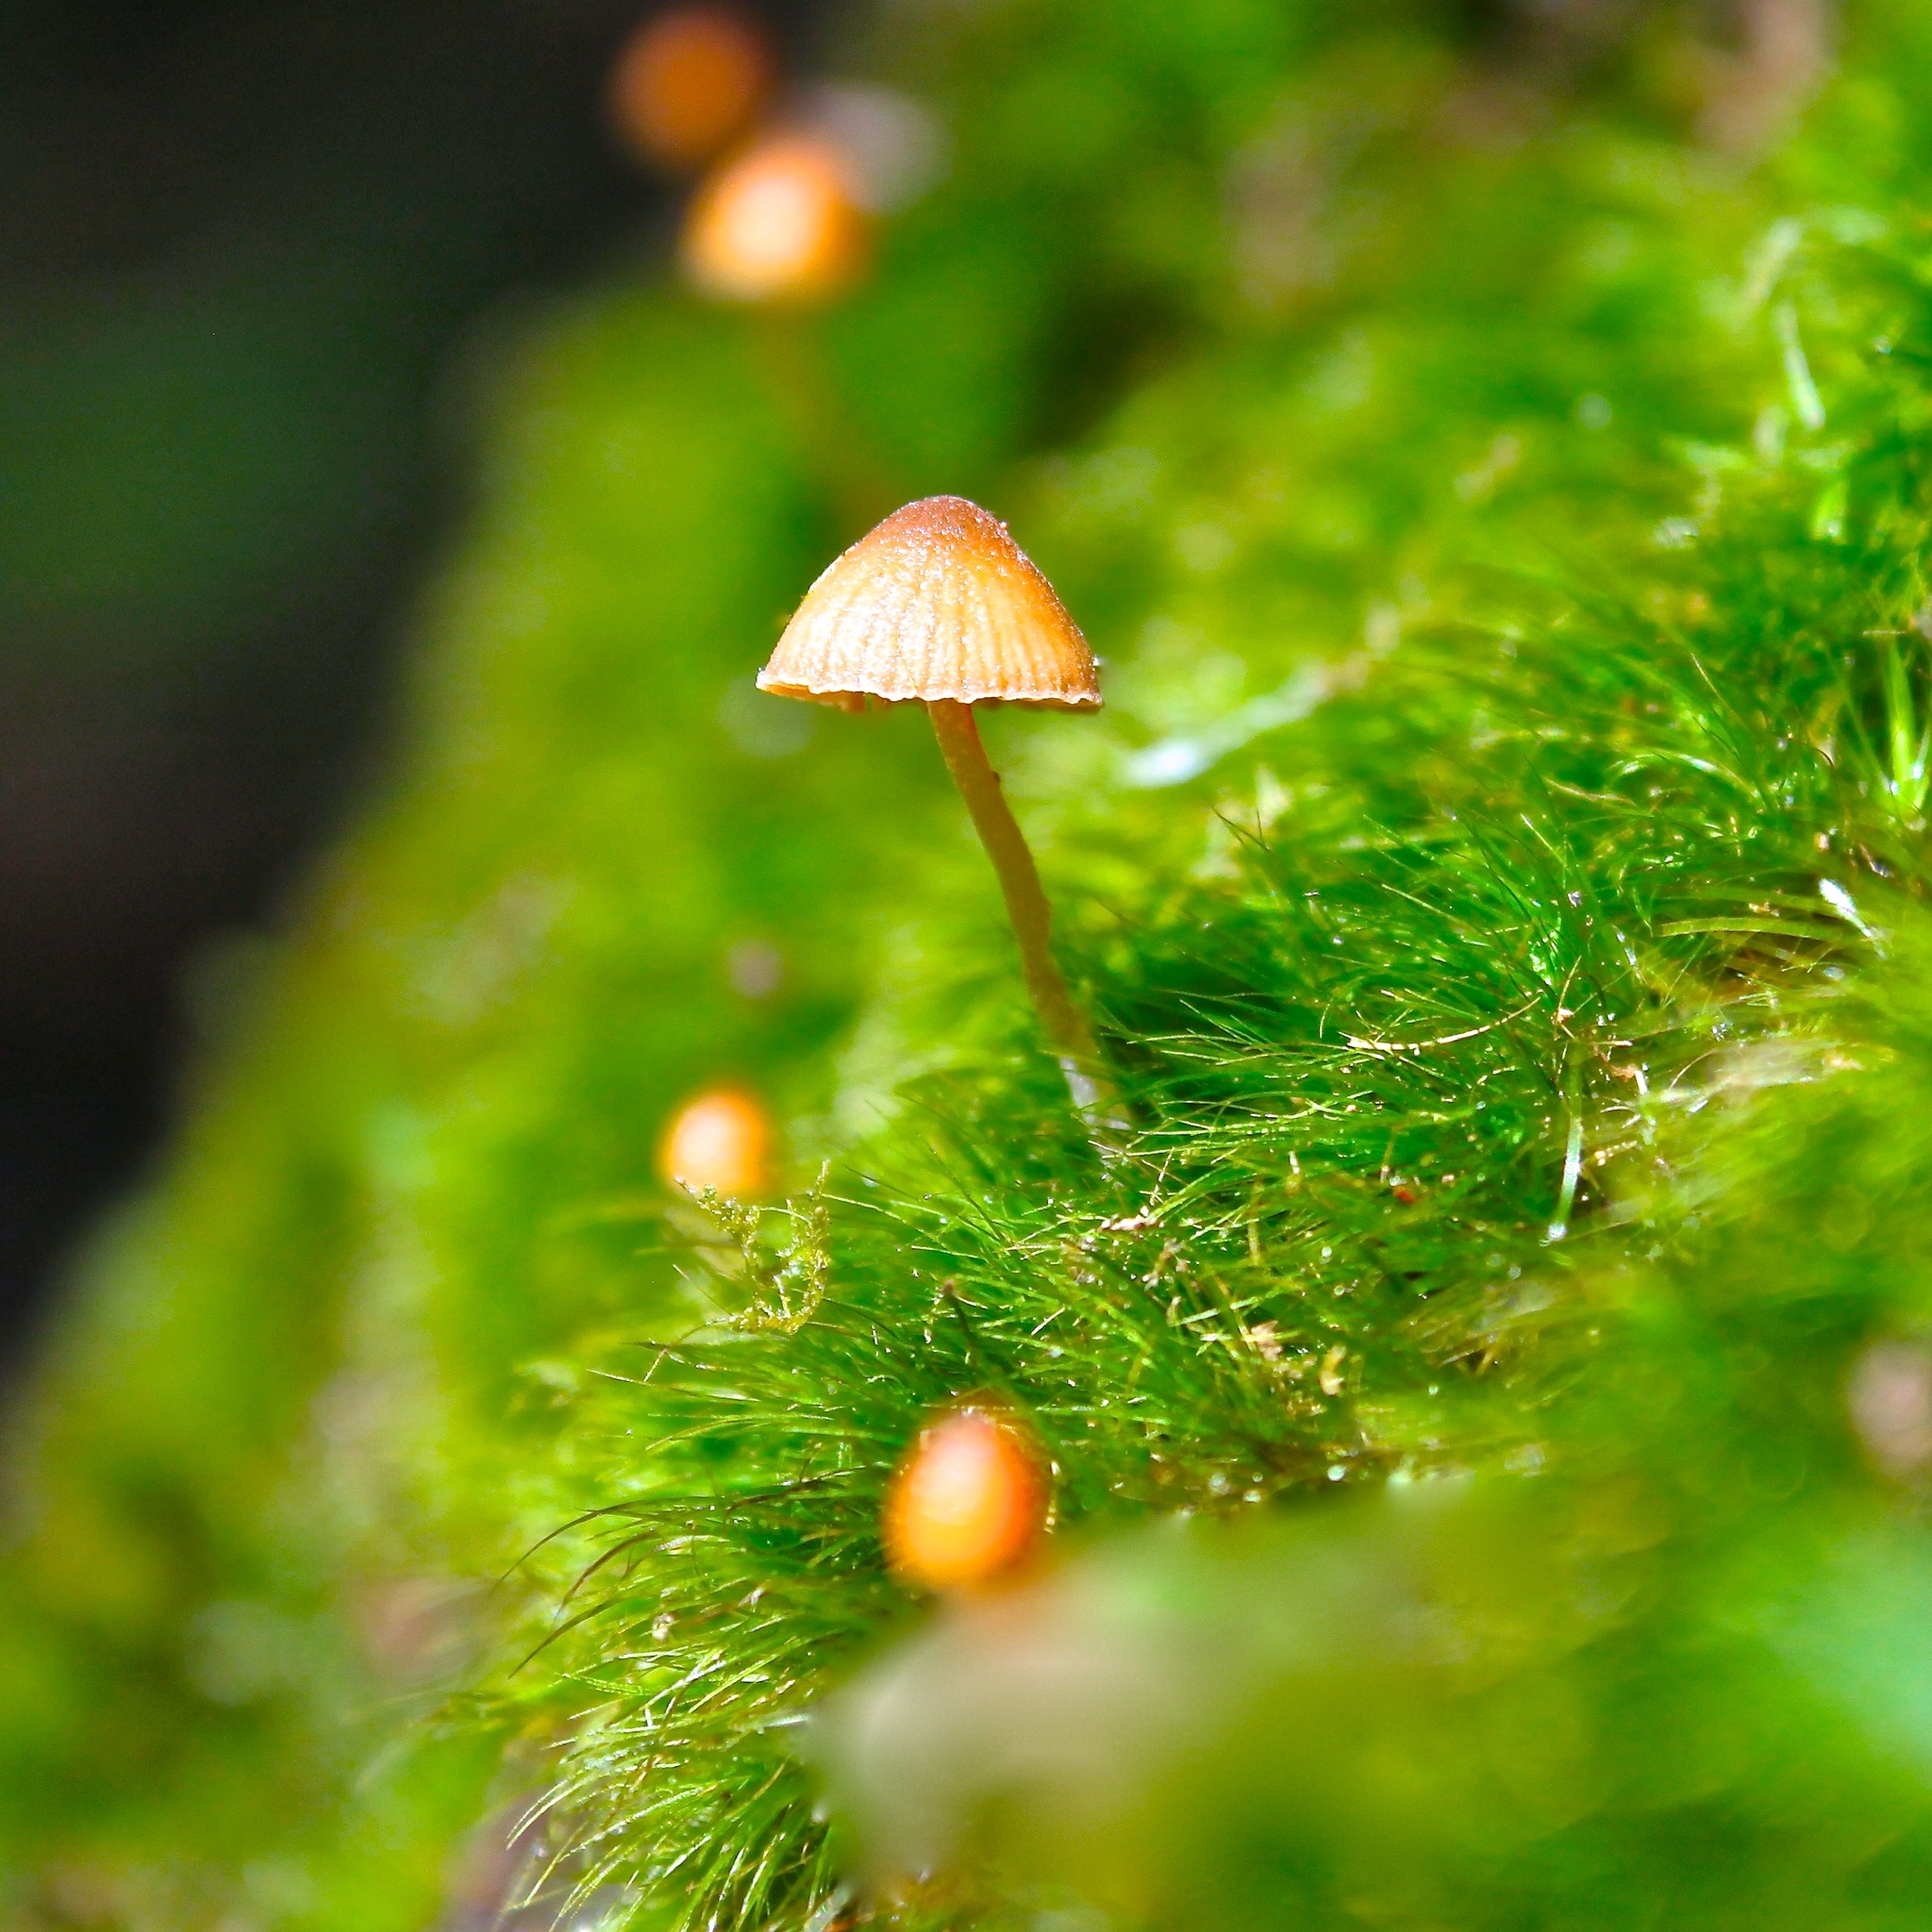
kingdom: Fungi
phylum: Basidiomycota
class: Agaricomycetes
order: Agaricales
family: Hymenogastraceae
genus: Galerina
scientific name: Galerina vittiformis
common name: Hairy leg bell
